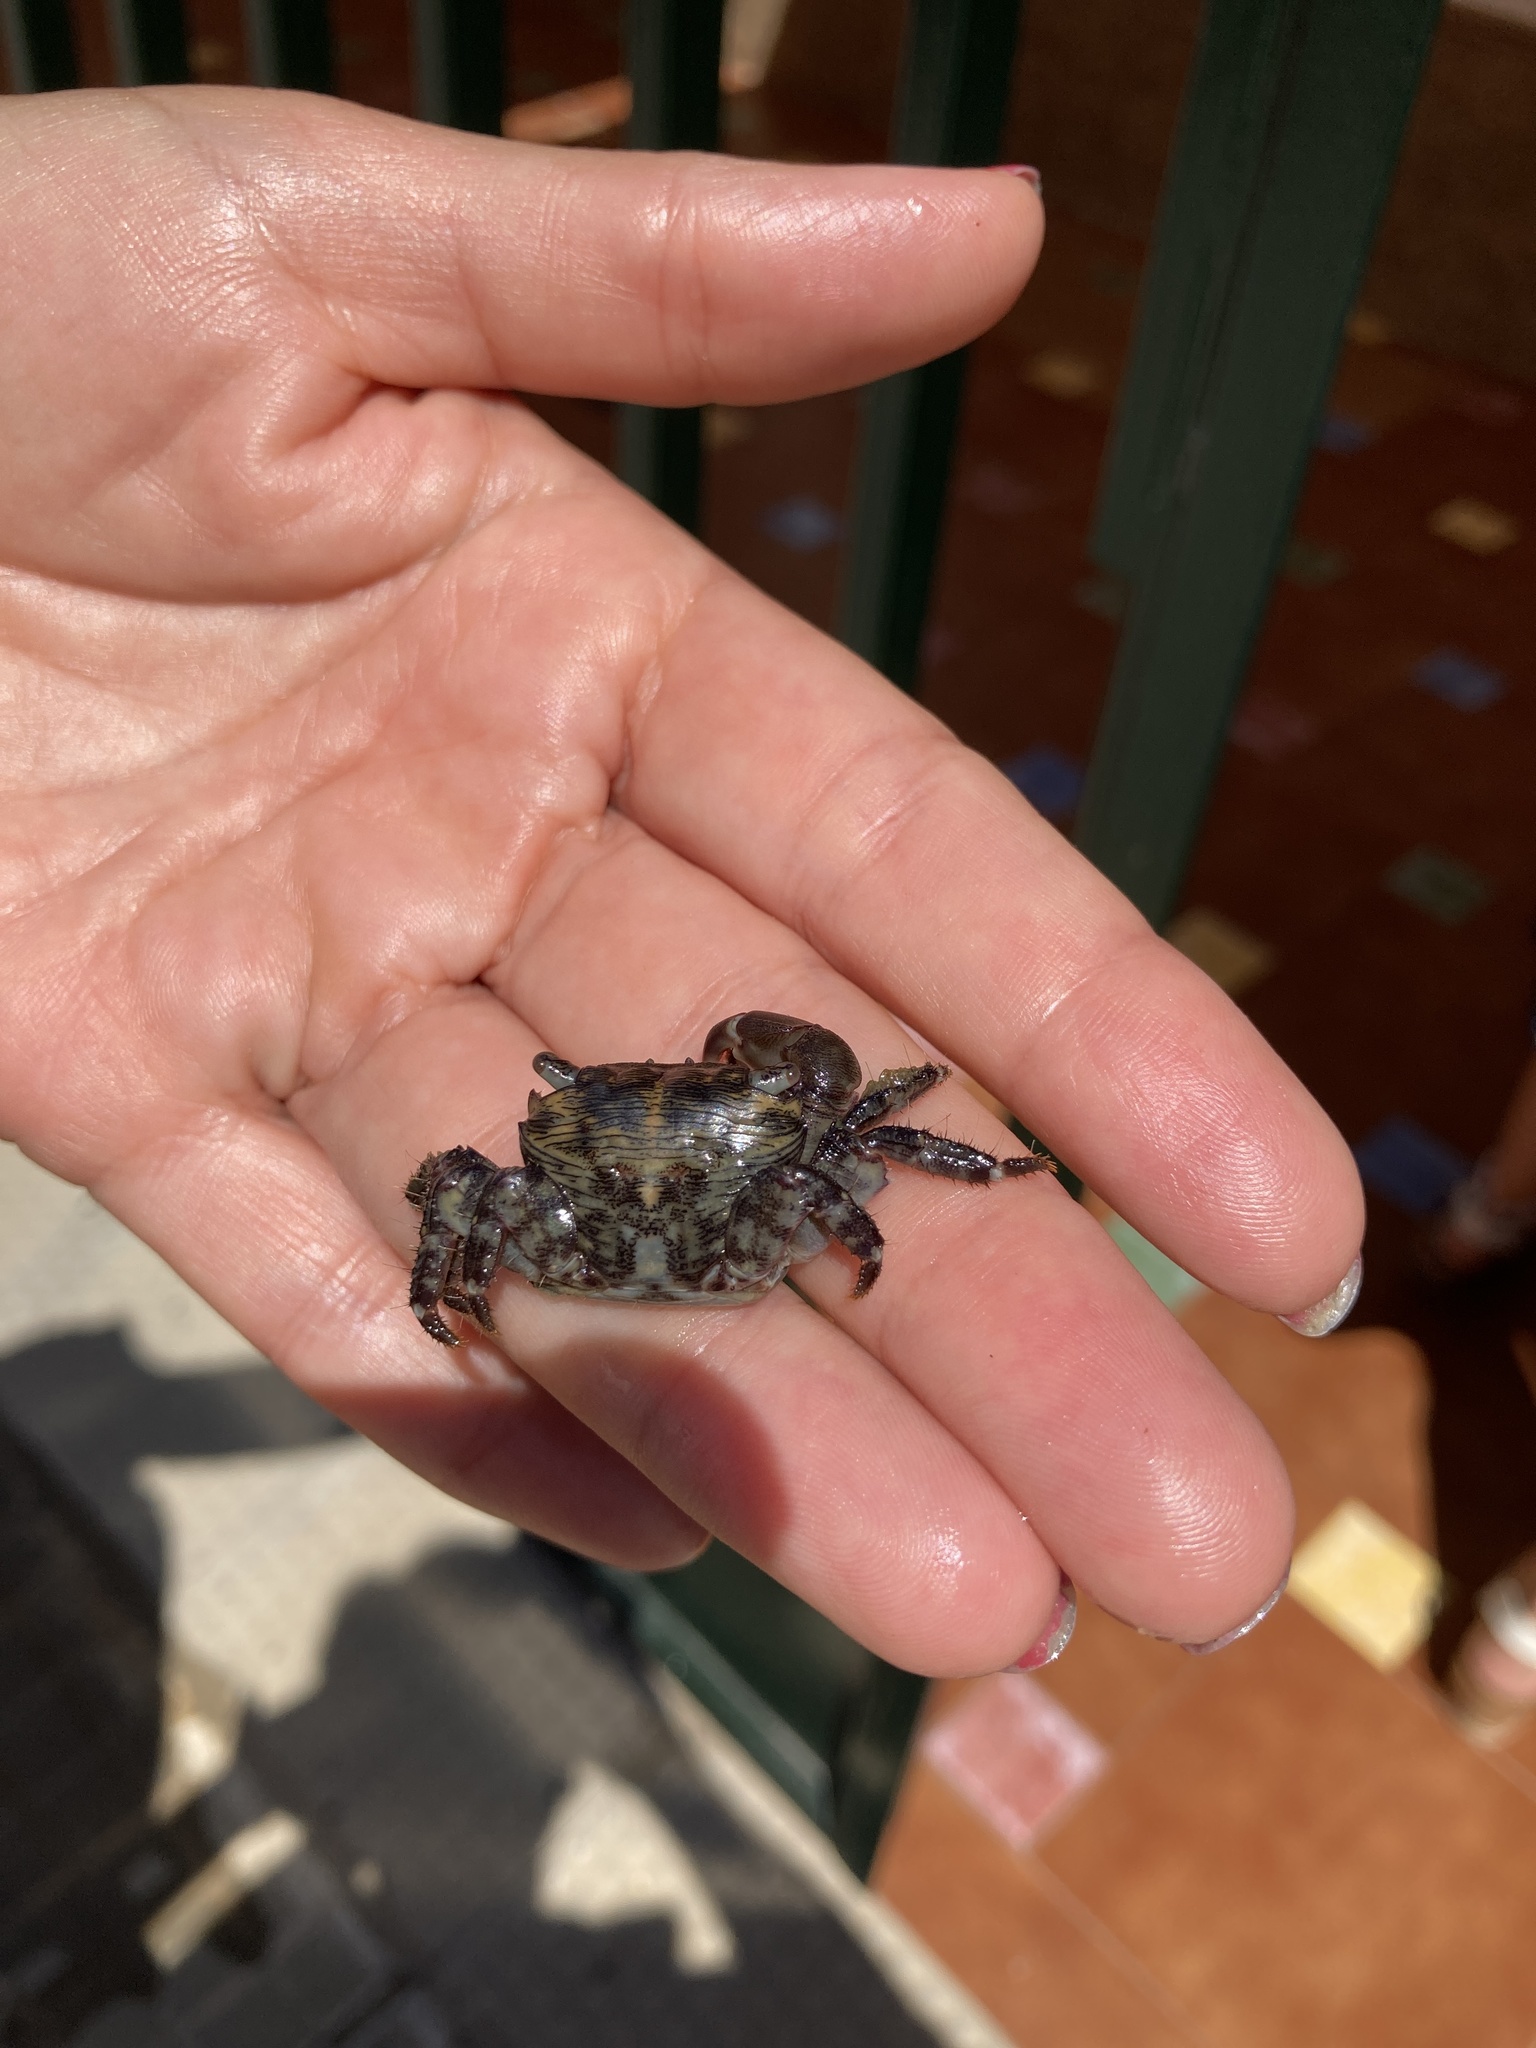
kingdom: Animalia
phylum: Arthropoda
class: Malacostraca
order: Decapoda
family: Grapsidae
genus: Pachygrapsus
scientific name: Pachygrapsus transversus
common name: Mottled shore crab
